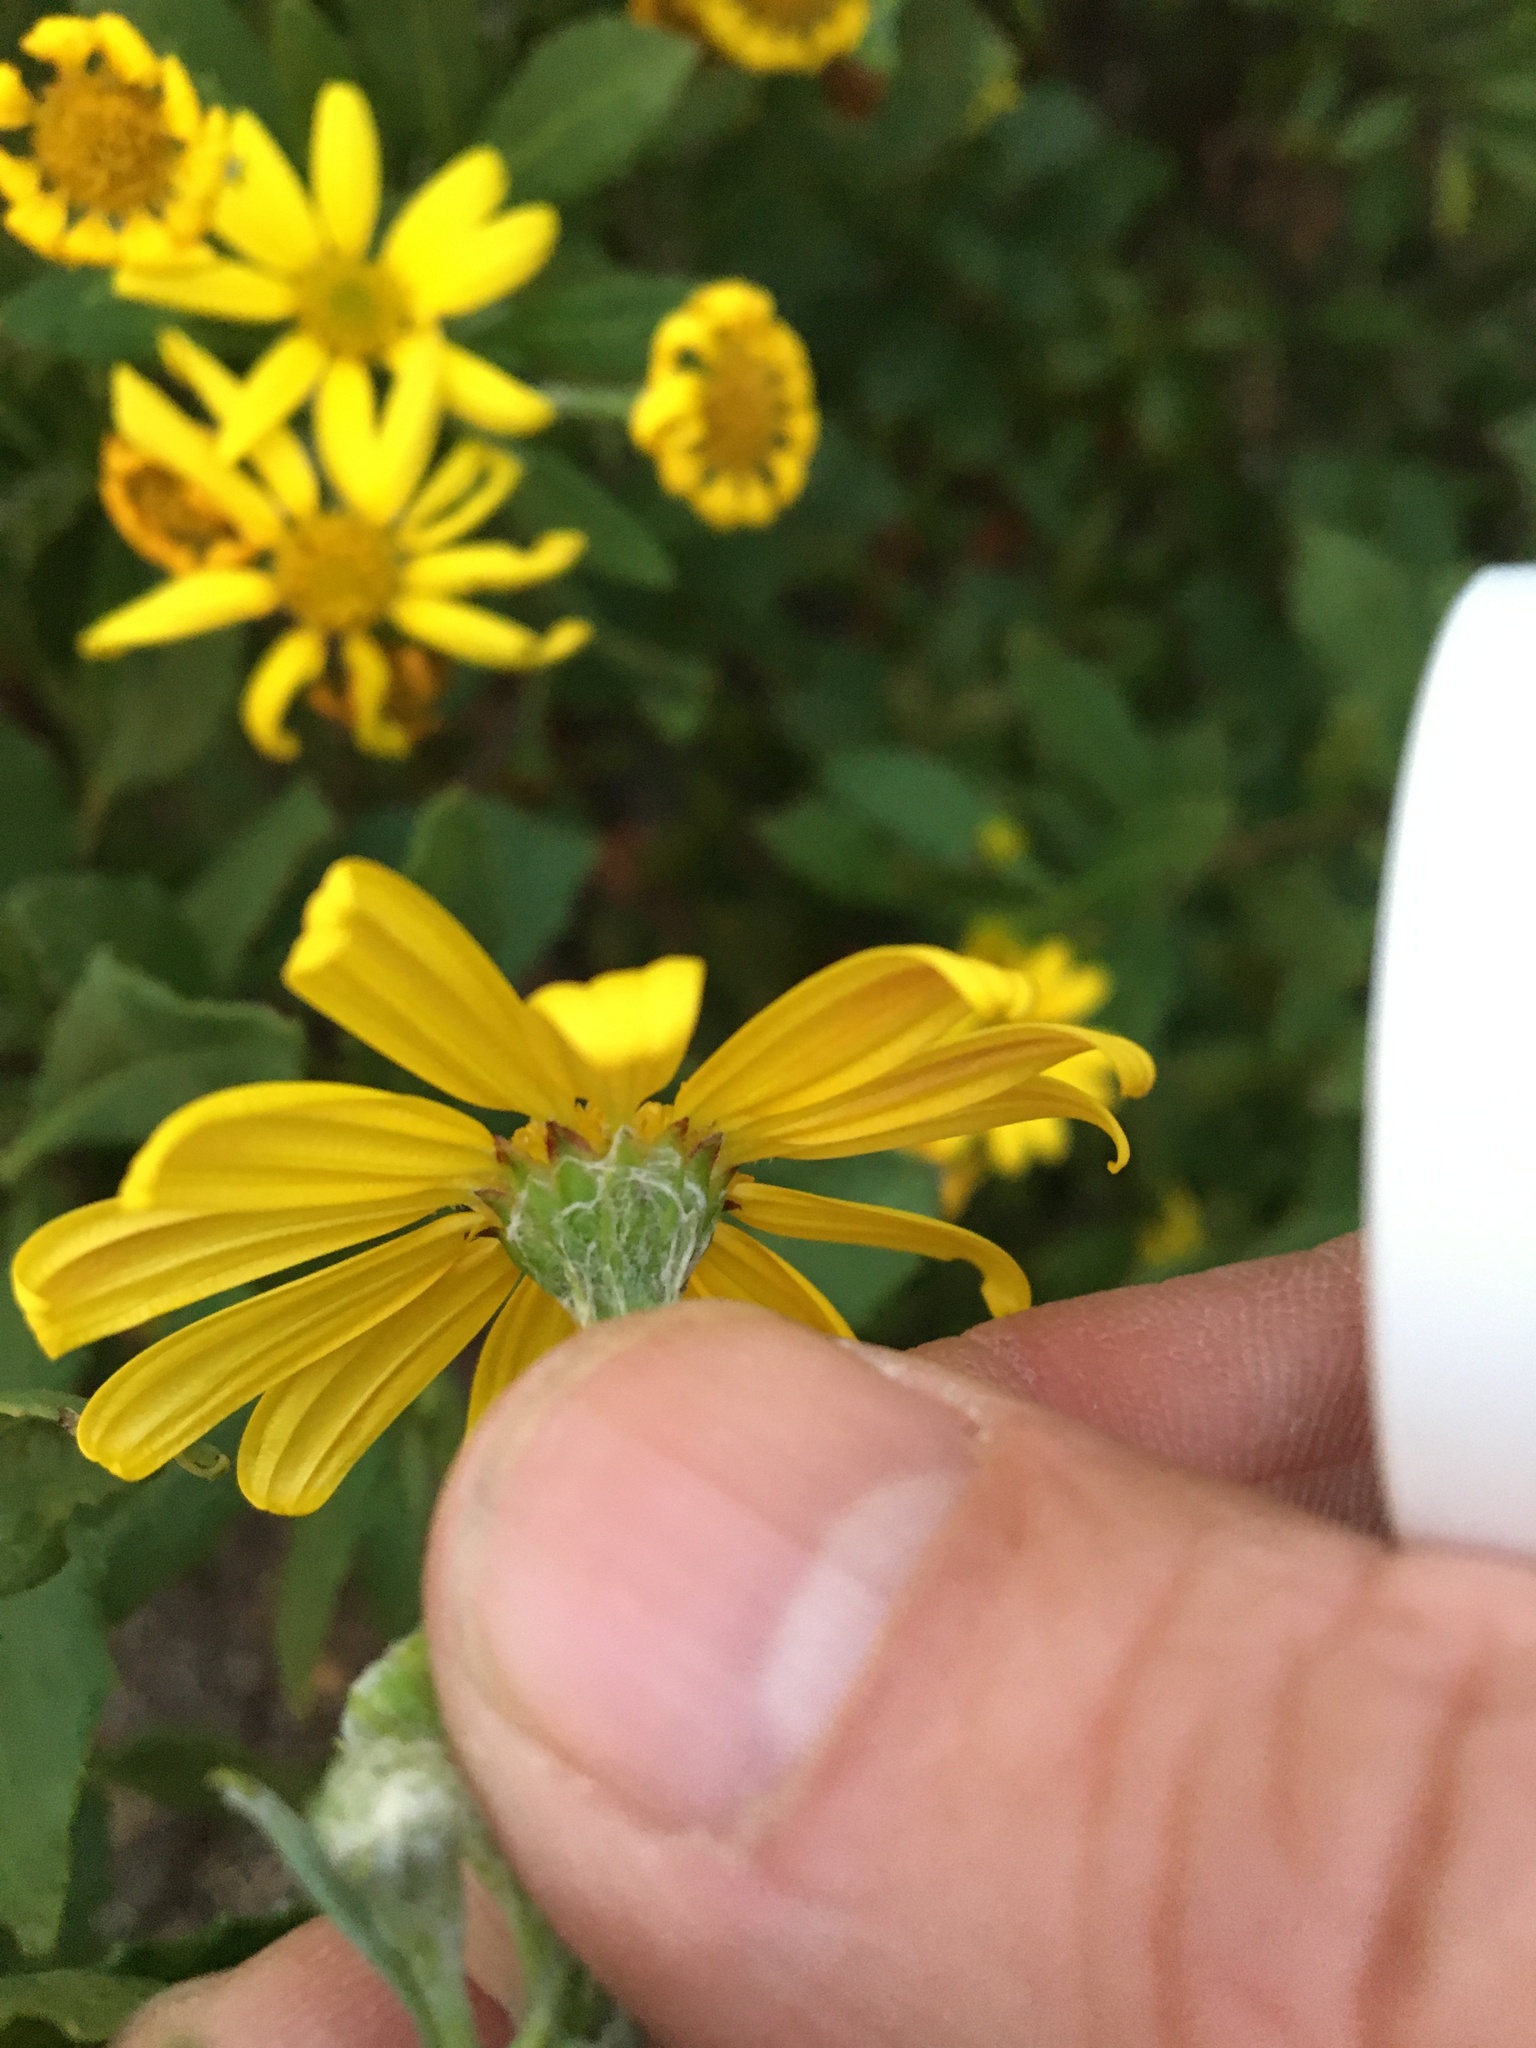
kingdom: Plantae
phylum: Tracheophyta
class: Magnoliopsida
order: Asterales
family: Asteraceae
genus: Osteospermum
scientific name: Osteospermum moniliferum
